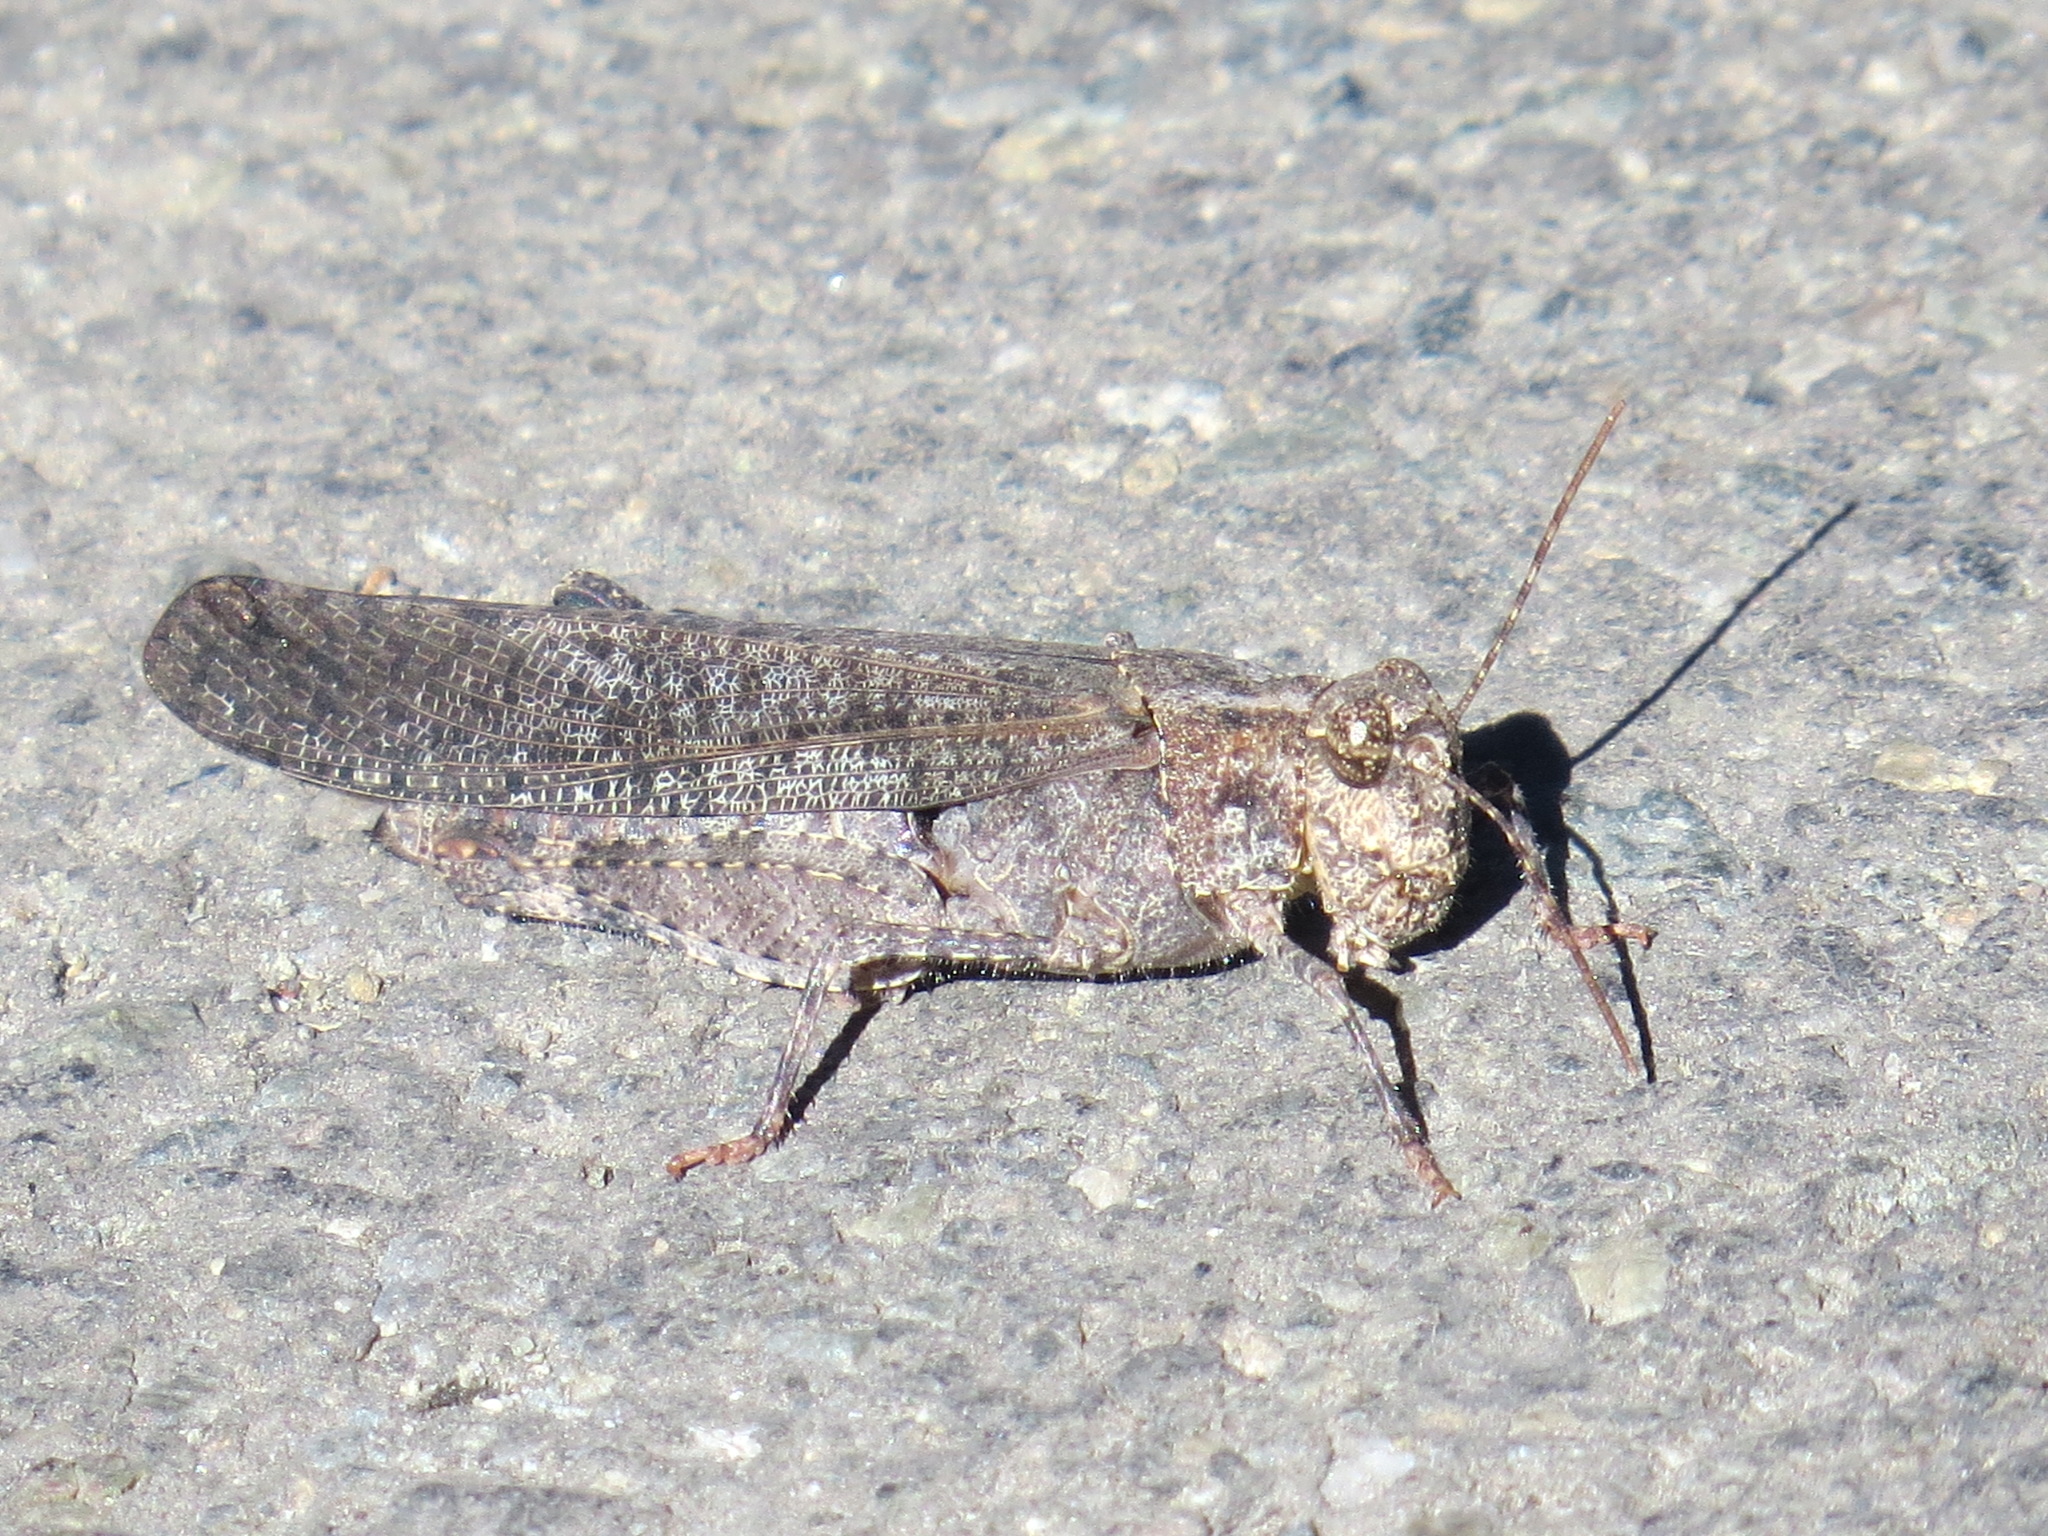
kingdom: Animalia
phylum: Arthropoda
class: Insecta
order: Orthoptera
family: Acrididae
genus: Trimerotropis
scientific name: Trimerotropis verruculata
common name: Crackling forest grasshopper
